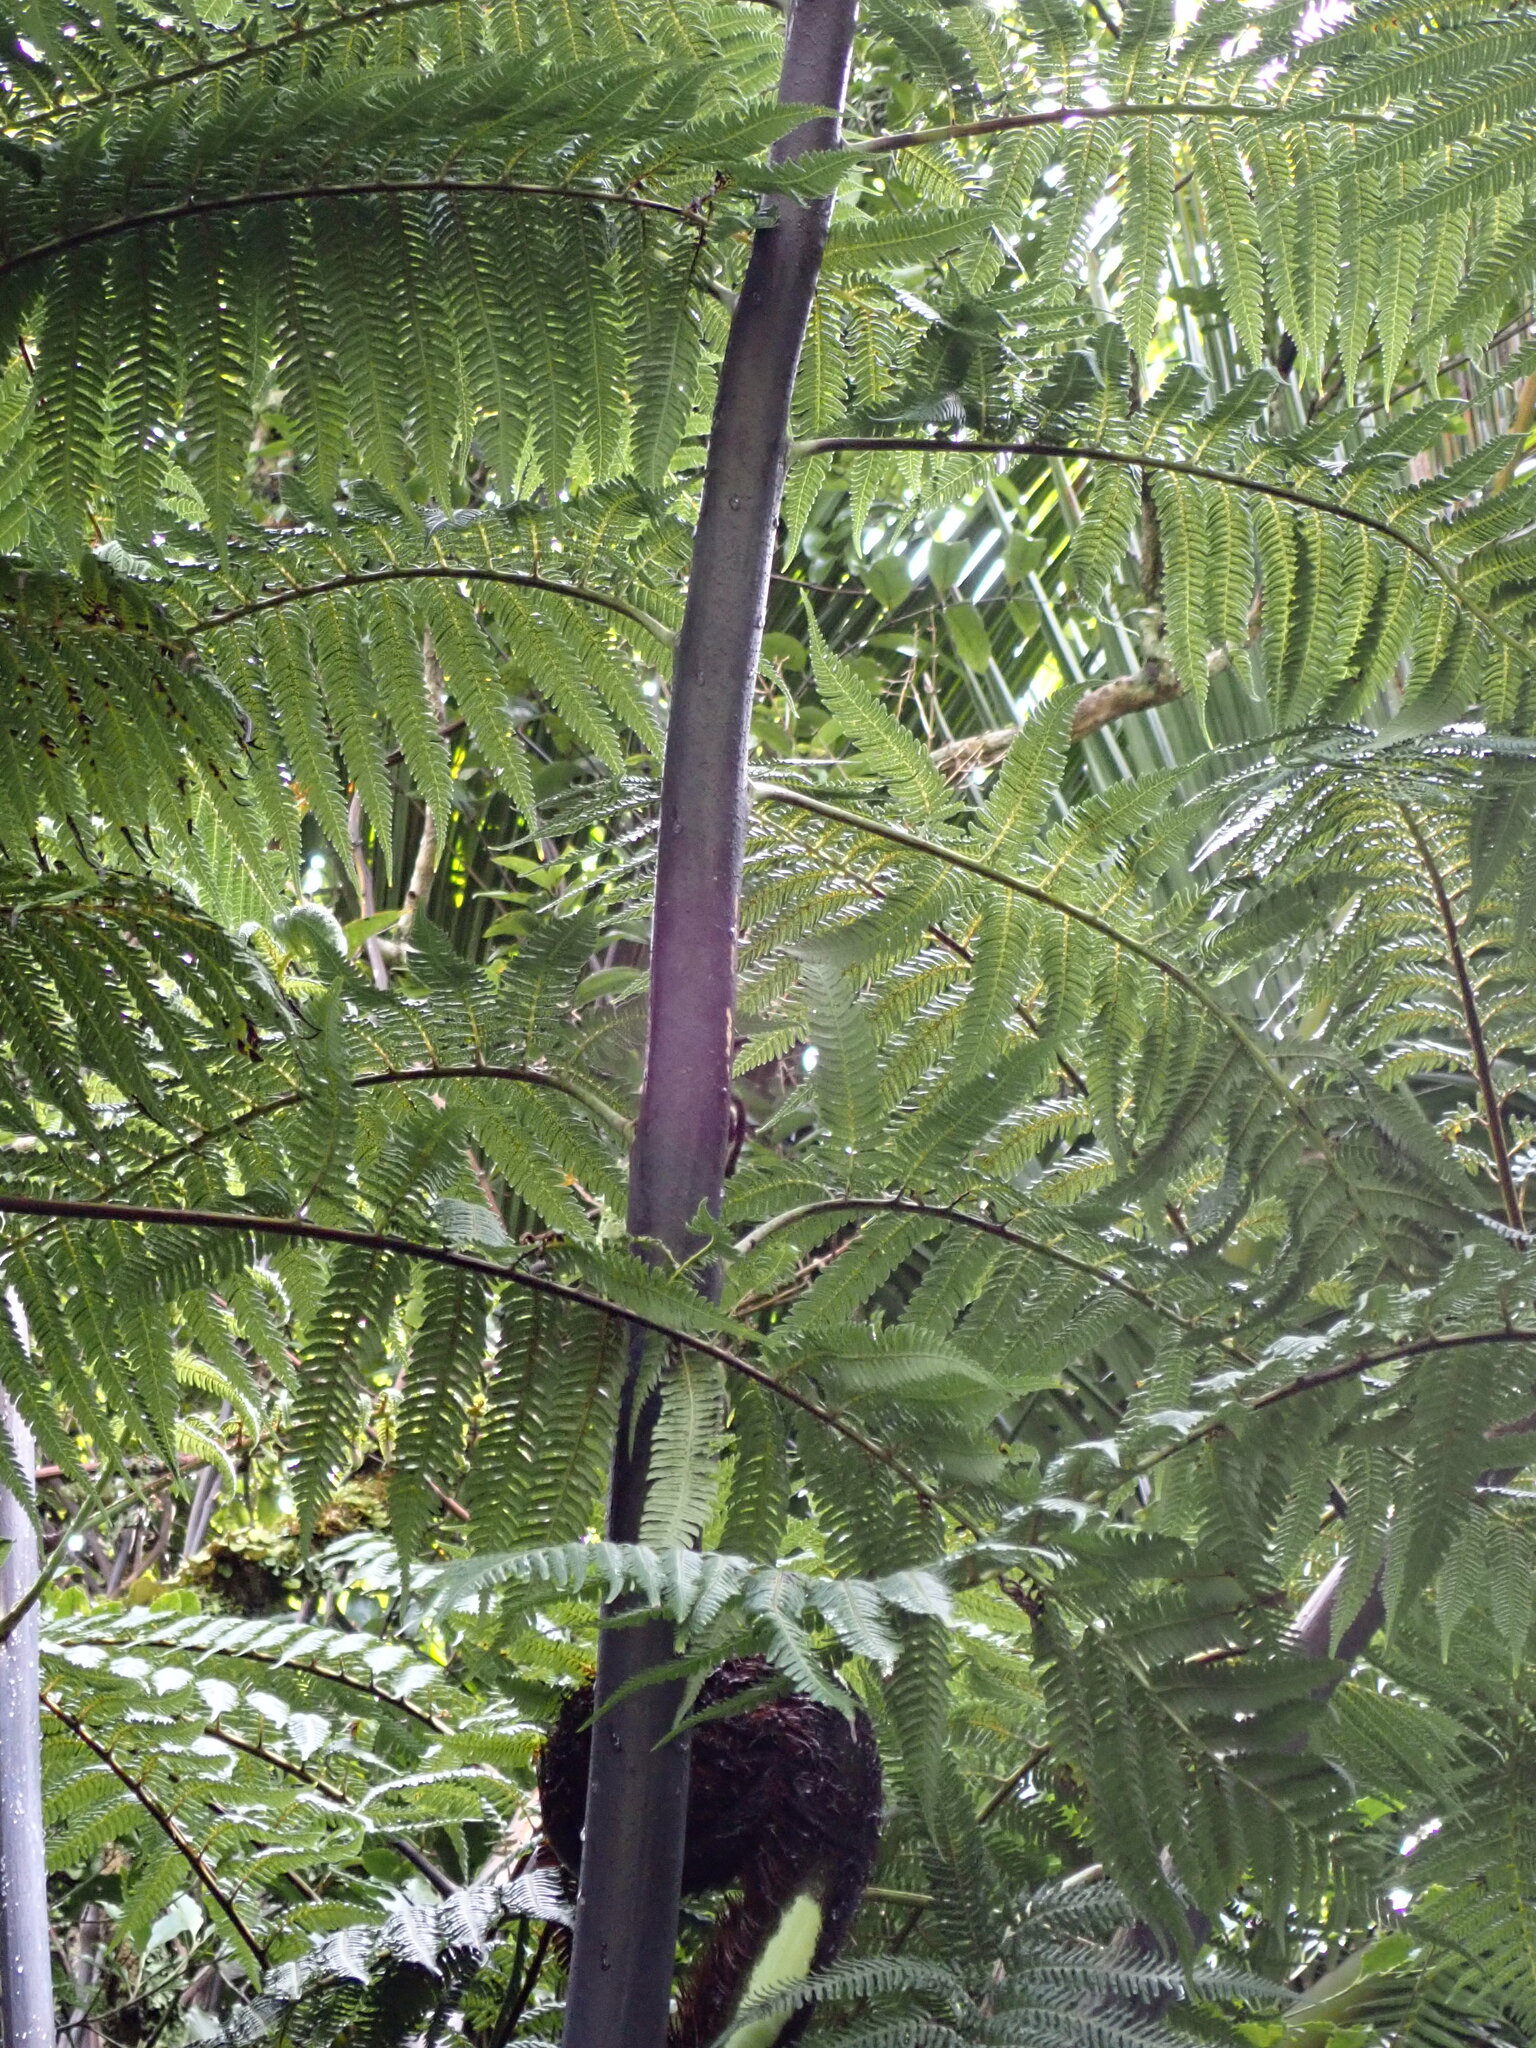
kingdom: Plantae
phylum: Tracheophyta
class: Polypodiopsida
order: Cyatheales
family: Cyatheaceae
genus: Sphaeropteris
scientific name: Sphaeropteris medullaris
